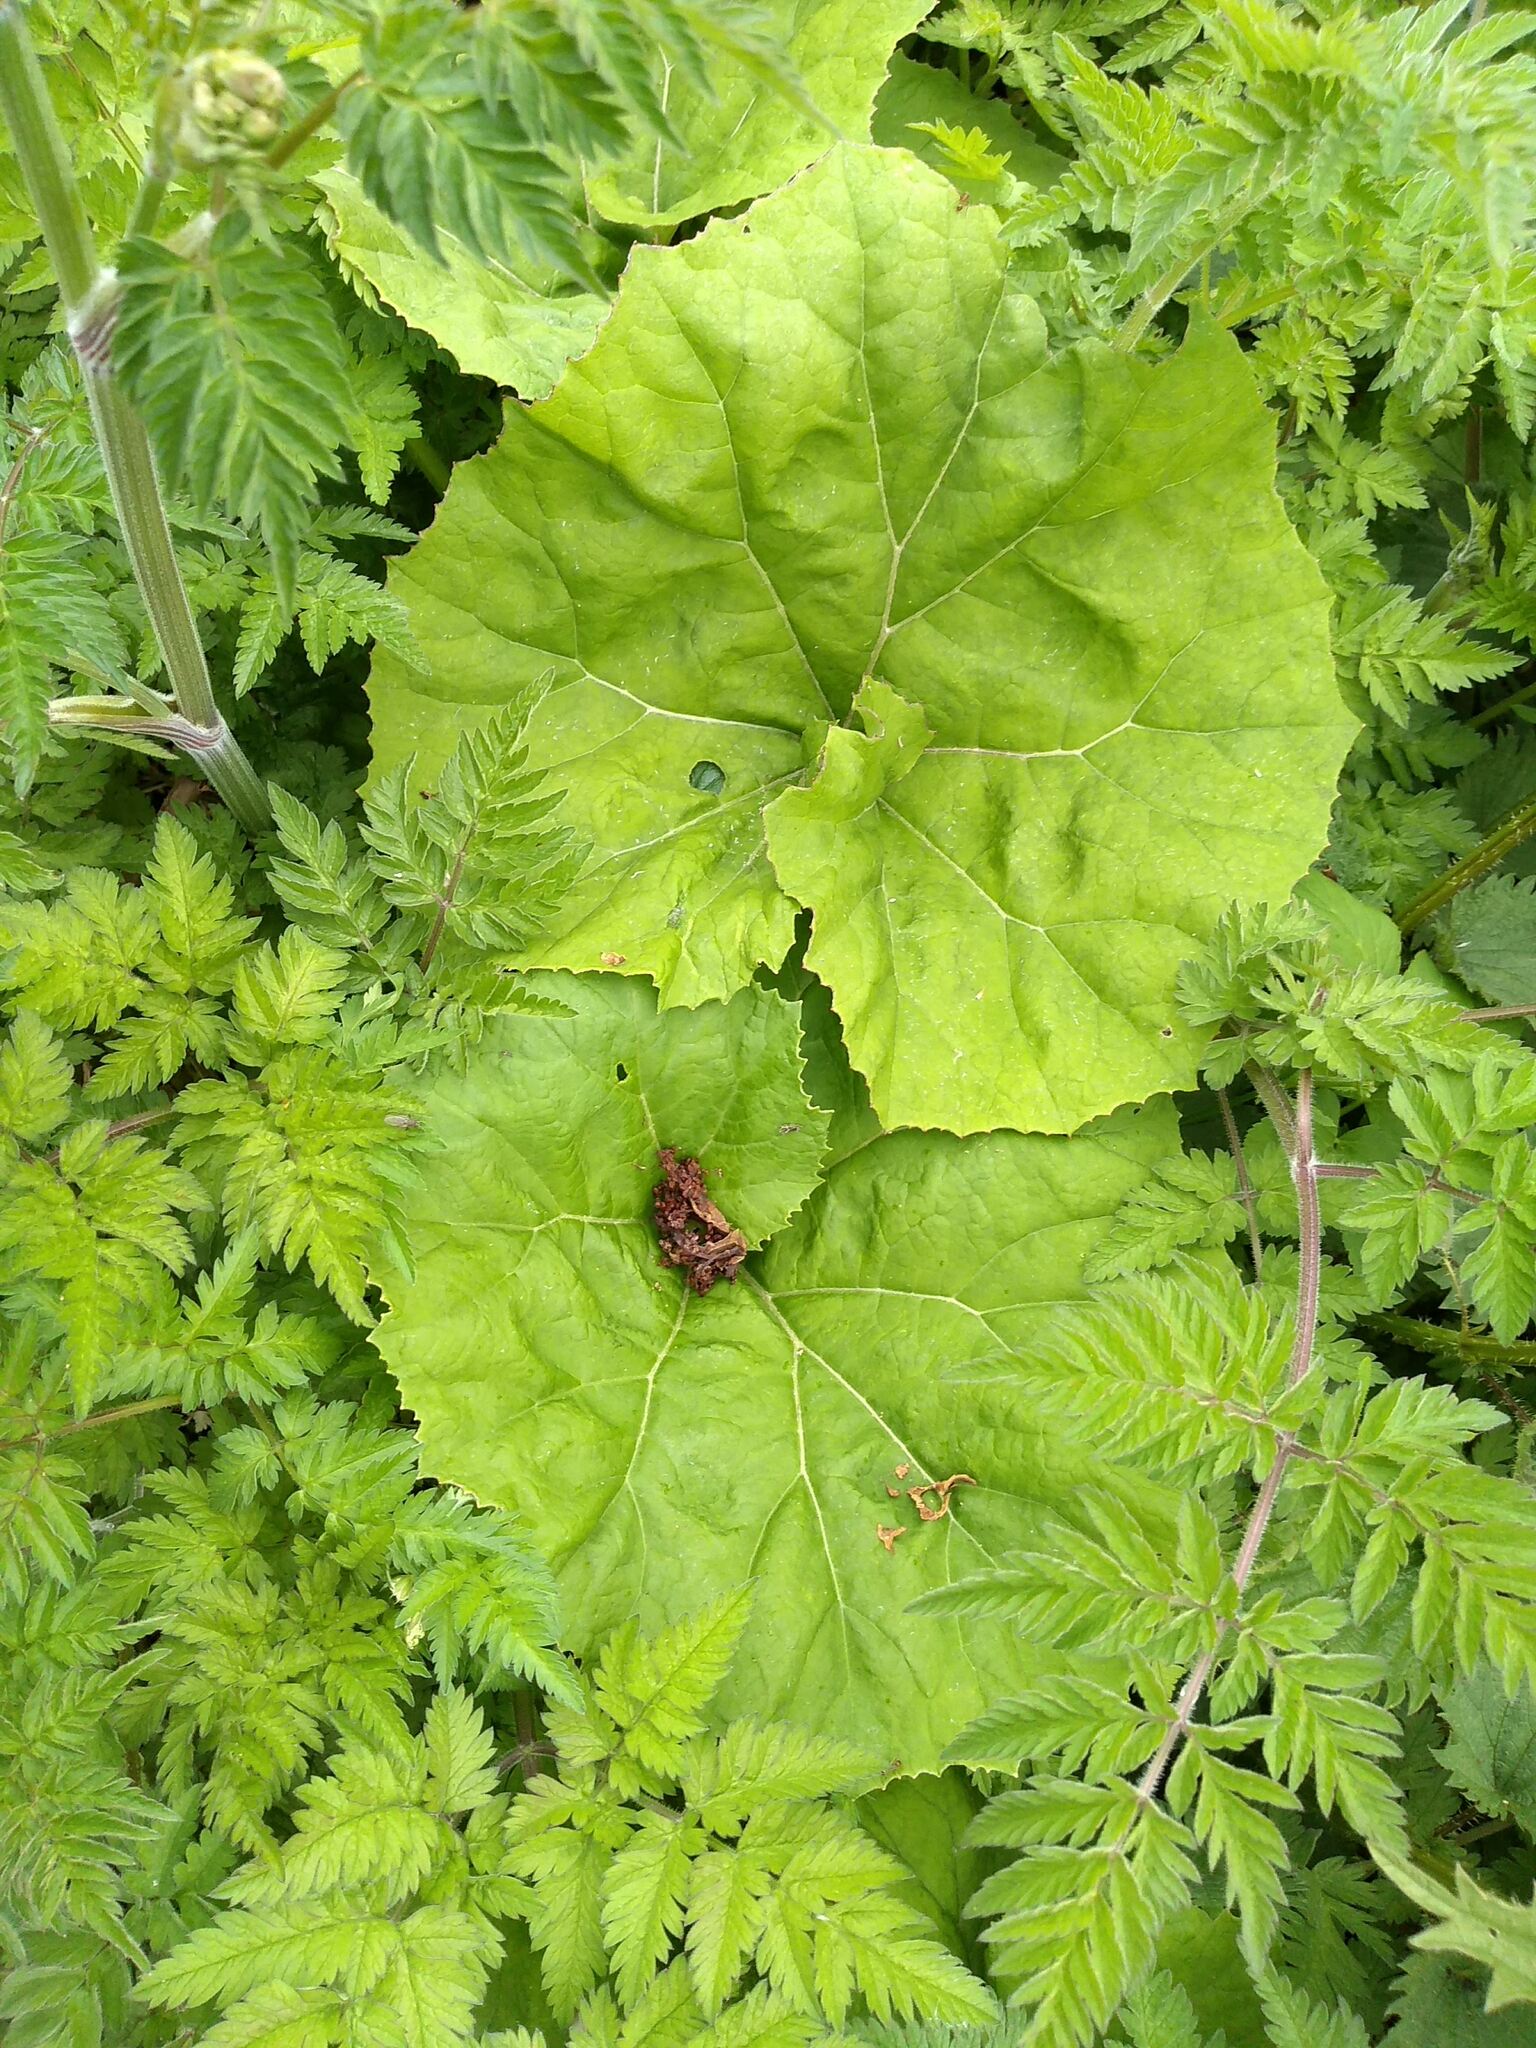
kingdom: Plantae
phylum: Tracheophyta
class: Magnoliopsida
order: Asterales
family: Asteraceae
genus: Petasites
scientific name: Petasites hybridus
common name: Butterbur
